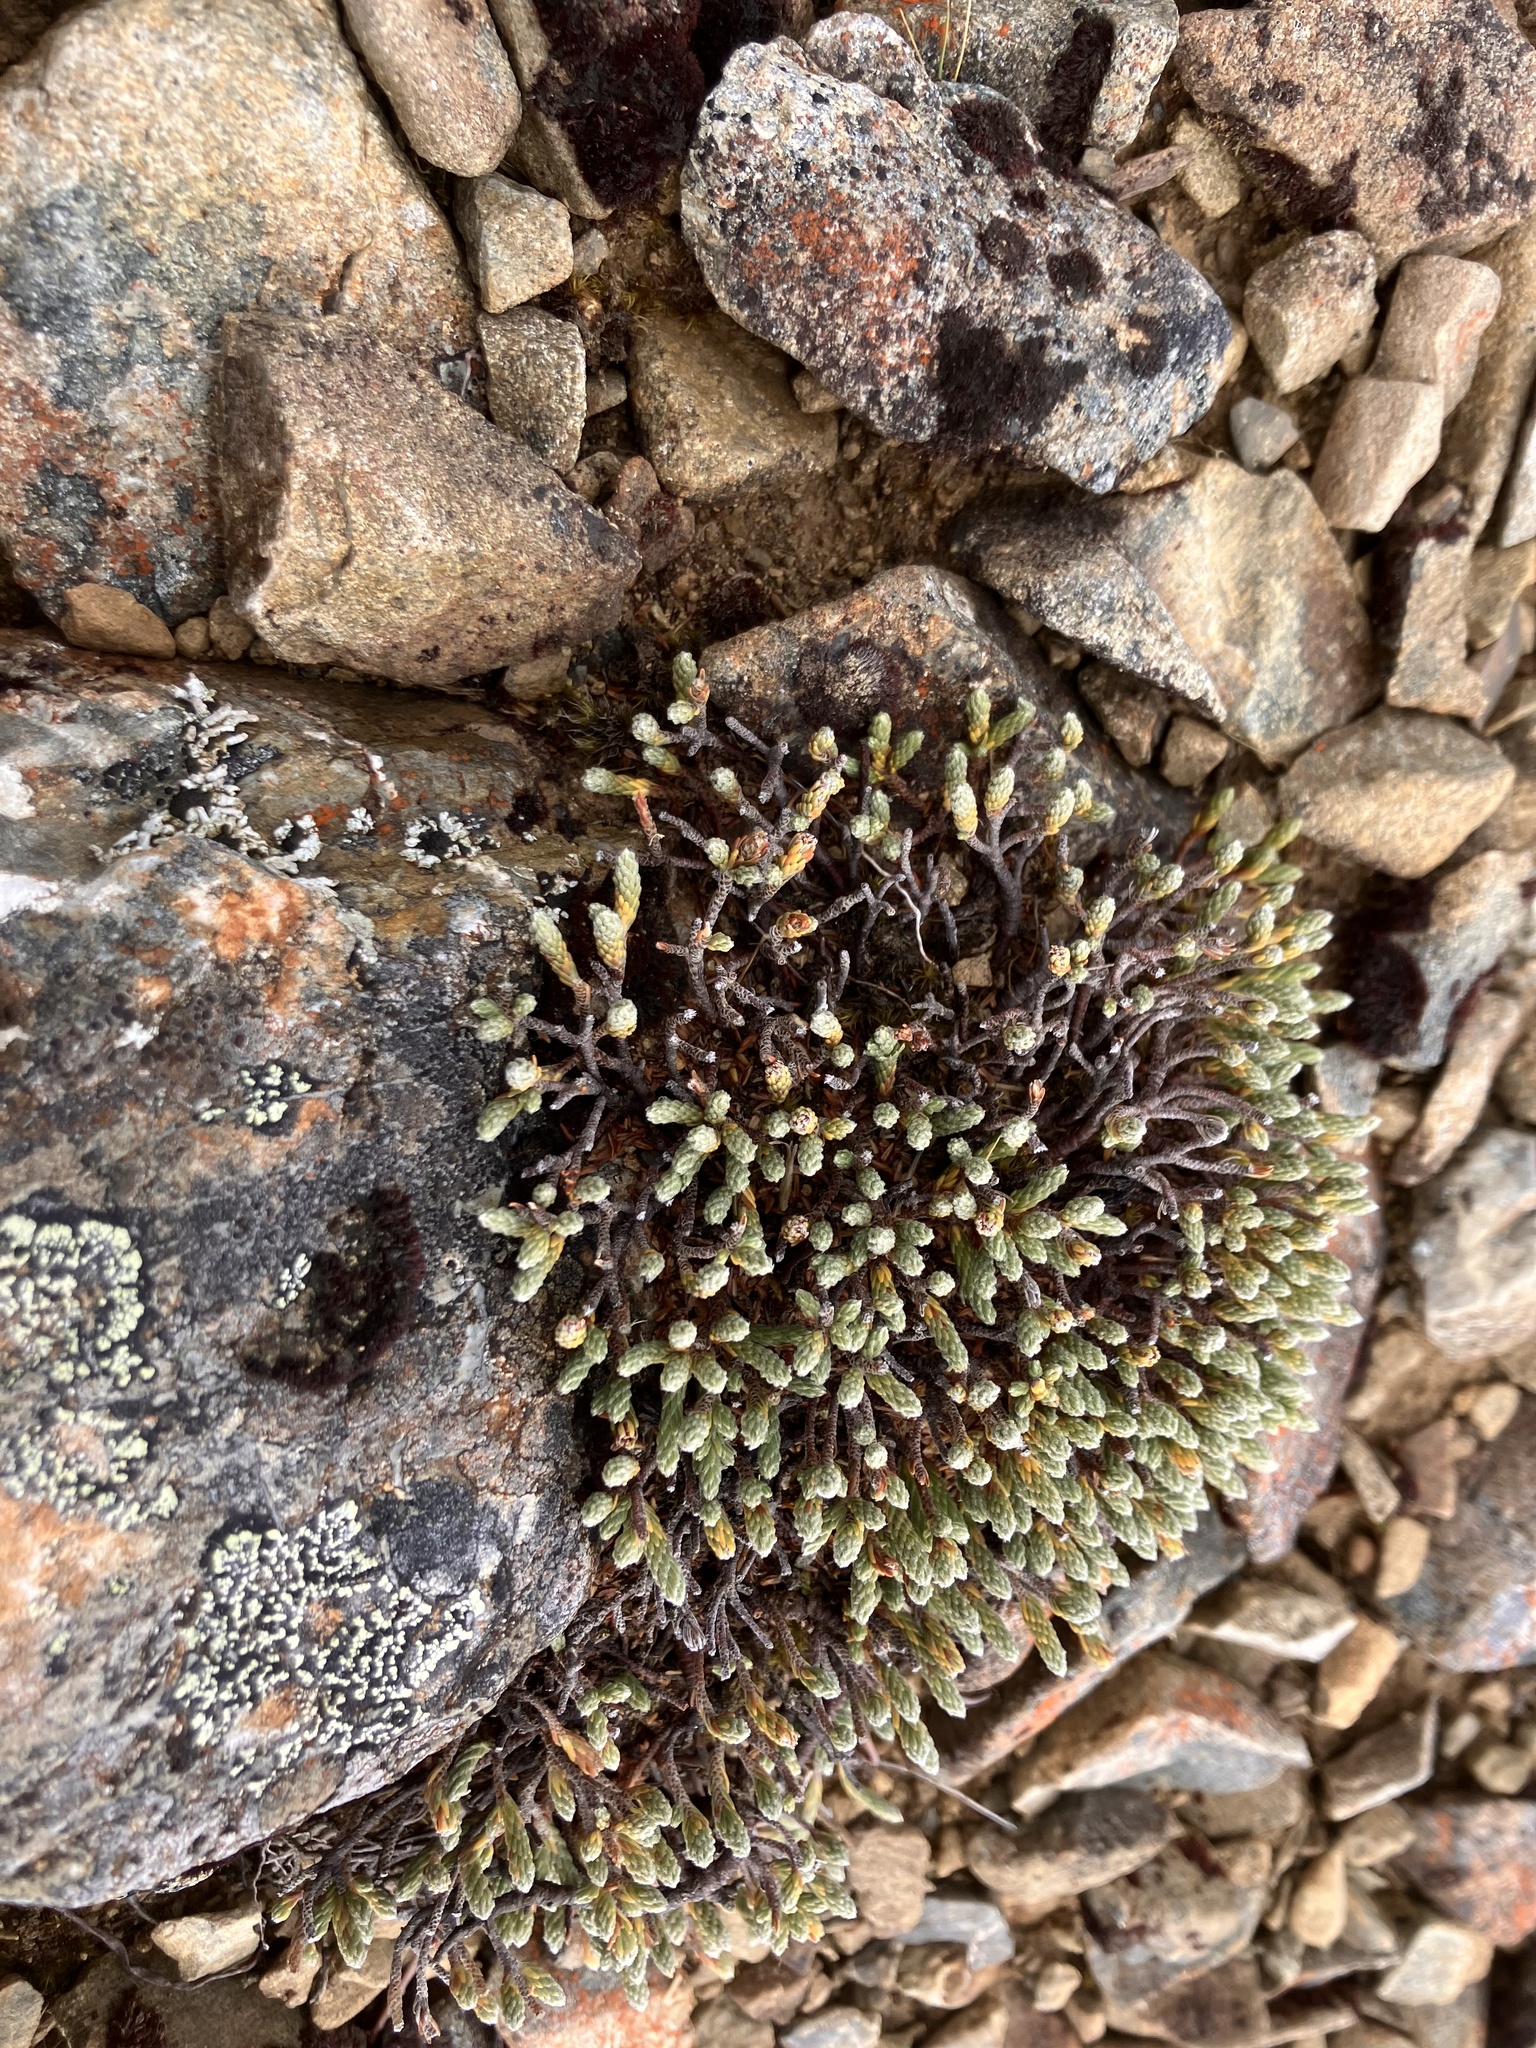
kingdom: Plantae
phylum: Tracheophyta
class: Magnoliopsida
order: Malvales
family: Thymelaeaceae
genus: Kelleria
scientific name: Kelleria dieffenbachii
